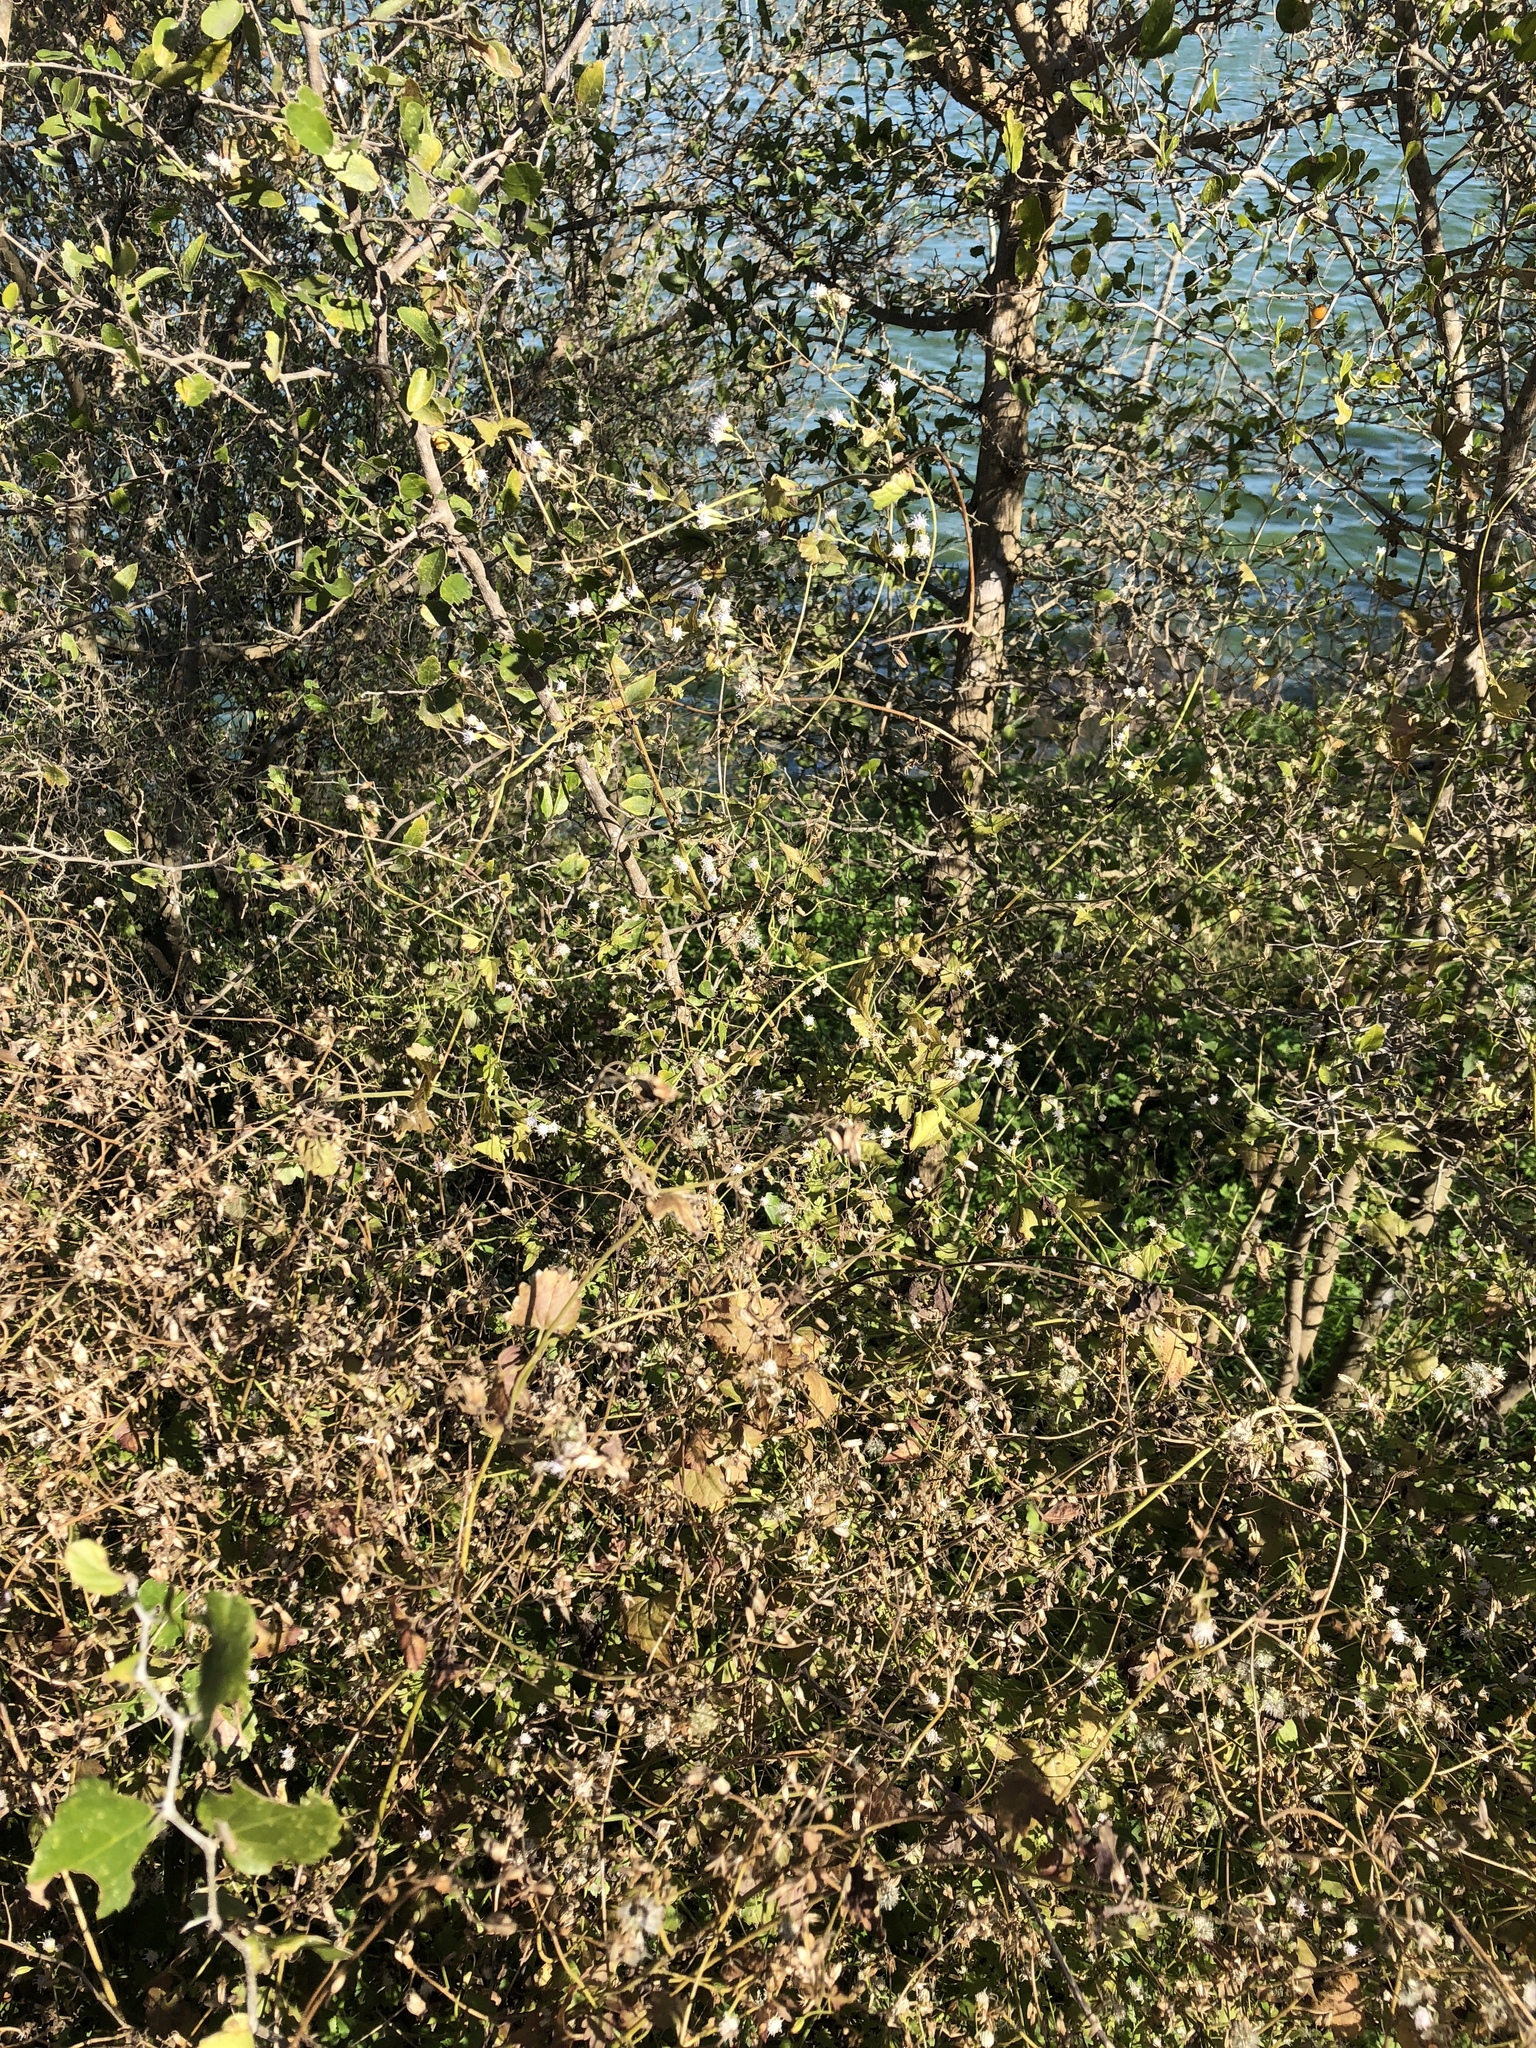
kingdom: Plantae
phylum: Tracheophyta
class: Magnoliopsida
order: Asterales
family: Asteraceae
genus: Fleischmannia
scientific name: Fleischmannia incarnata
